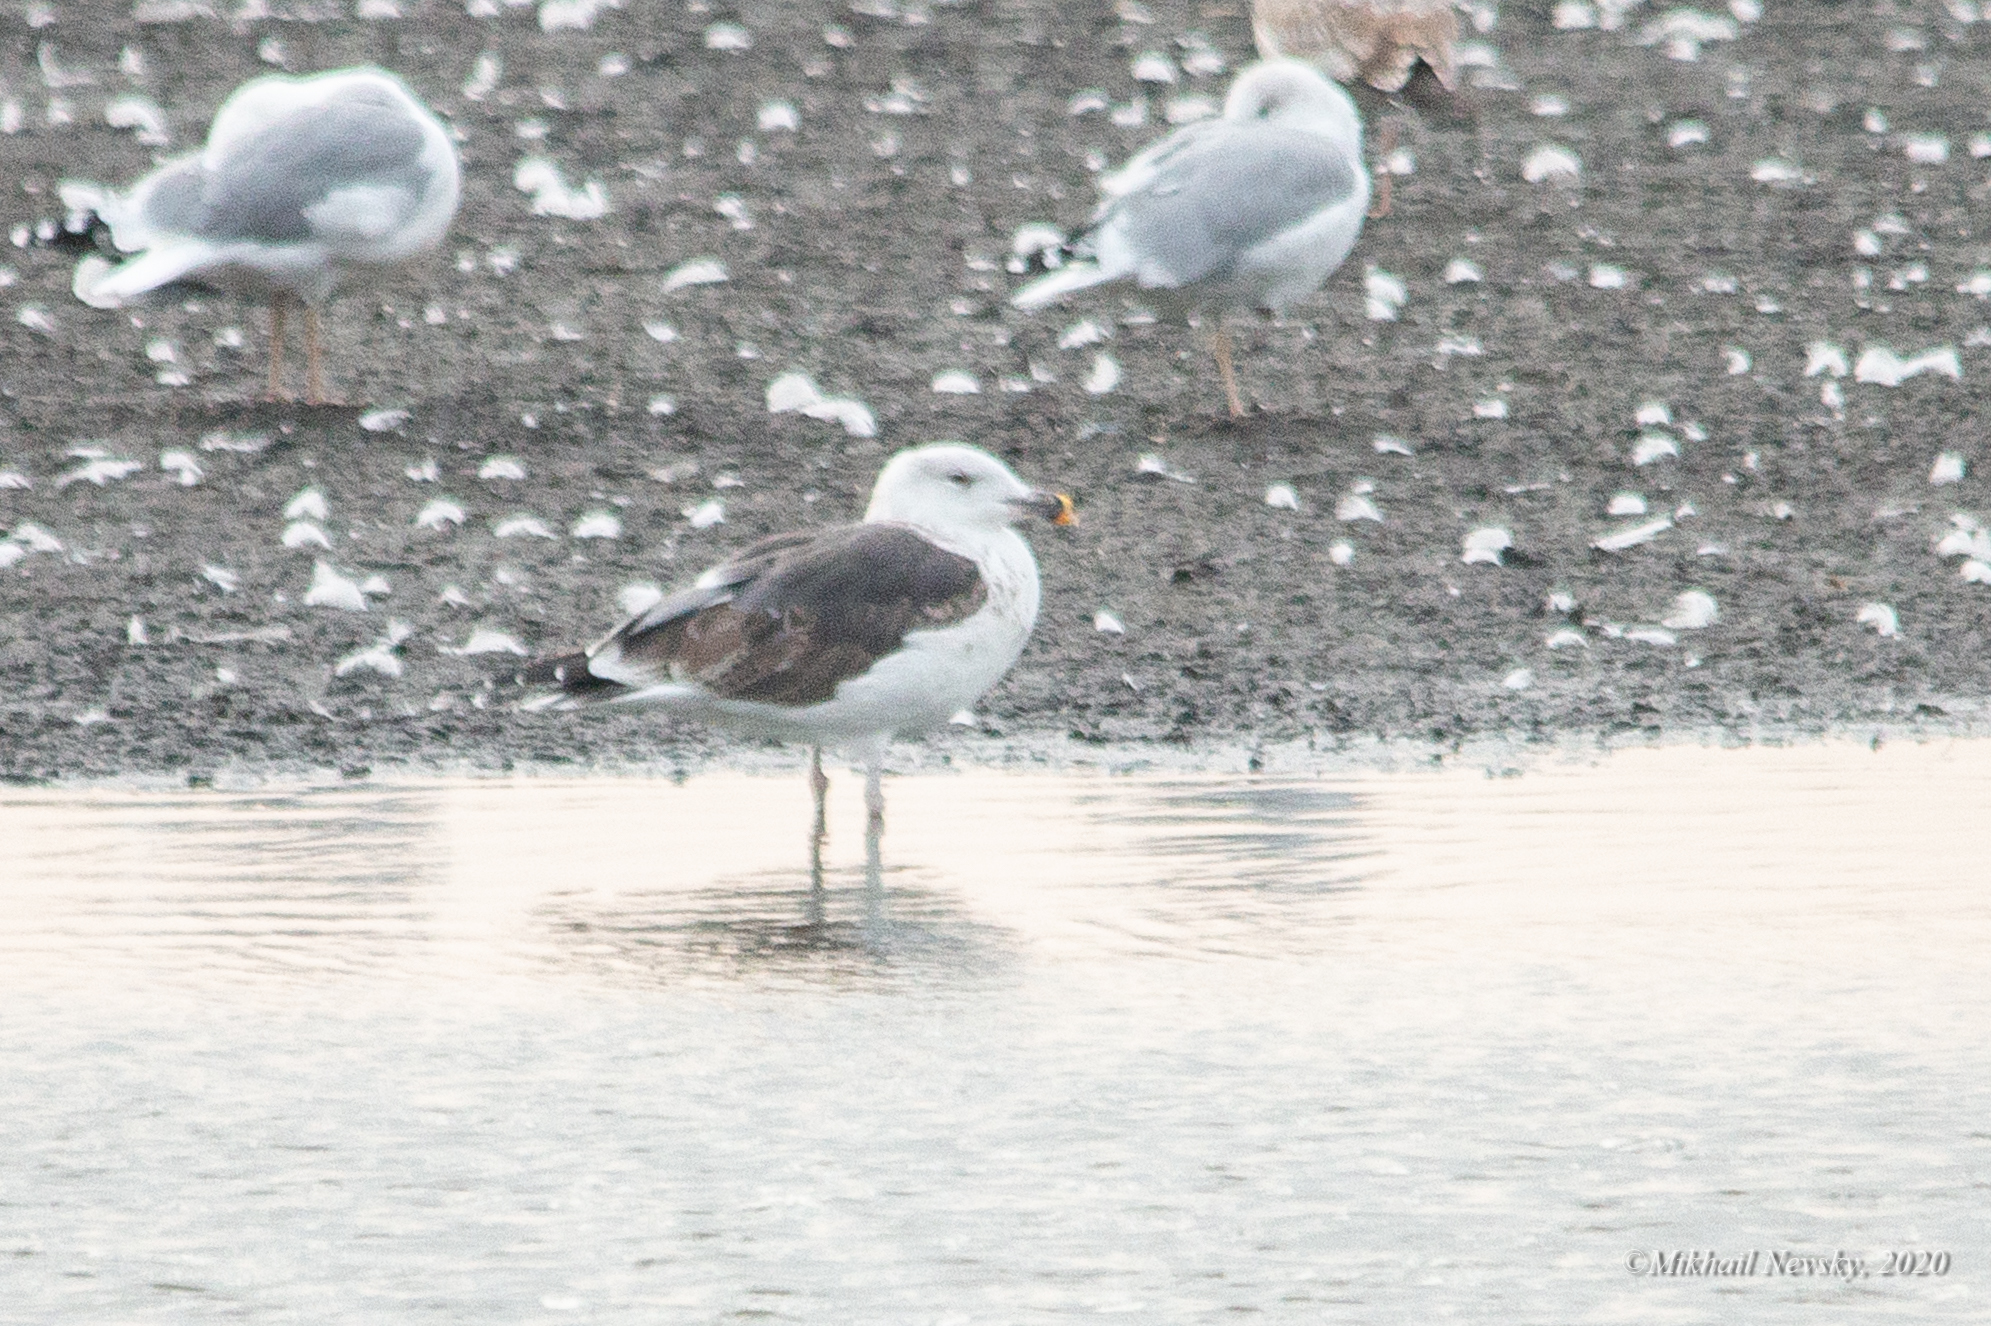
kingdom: Animalia
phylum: Chordata
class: Aves
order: Charadriiformes
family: Laridae
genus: Larus
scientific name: Larus marinus
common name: Great black-backed gull
